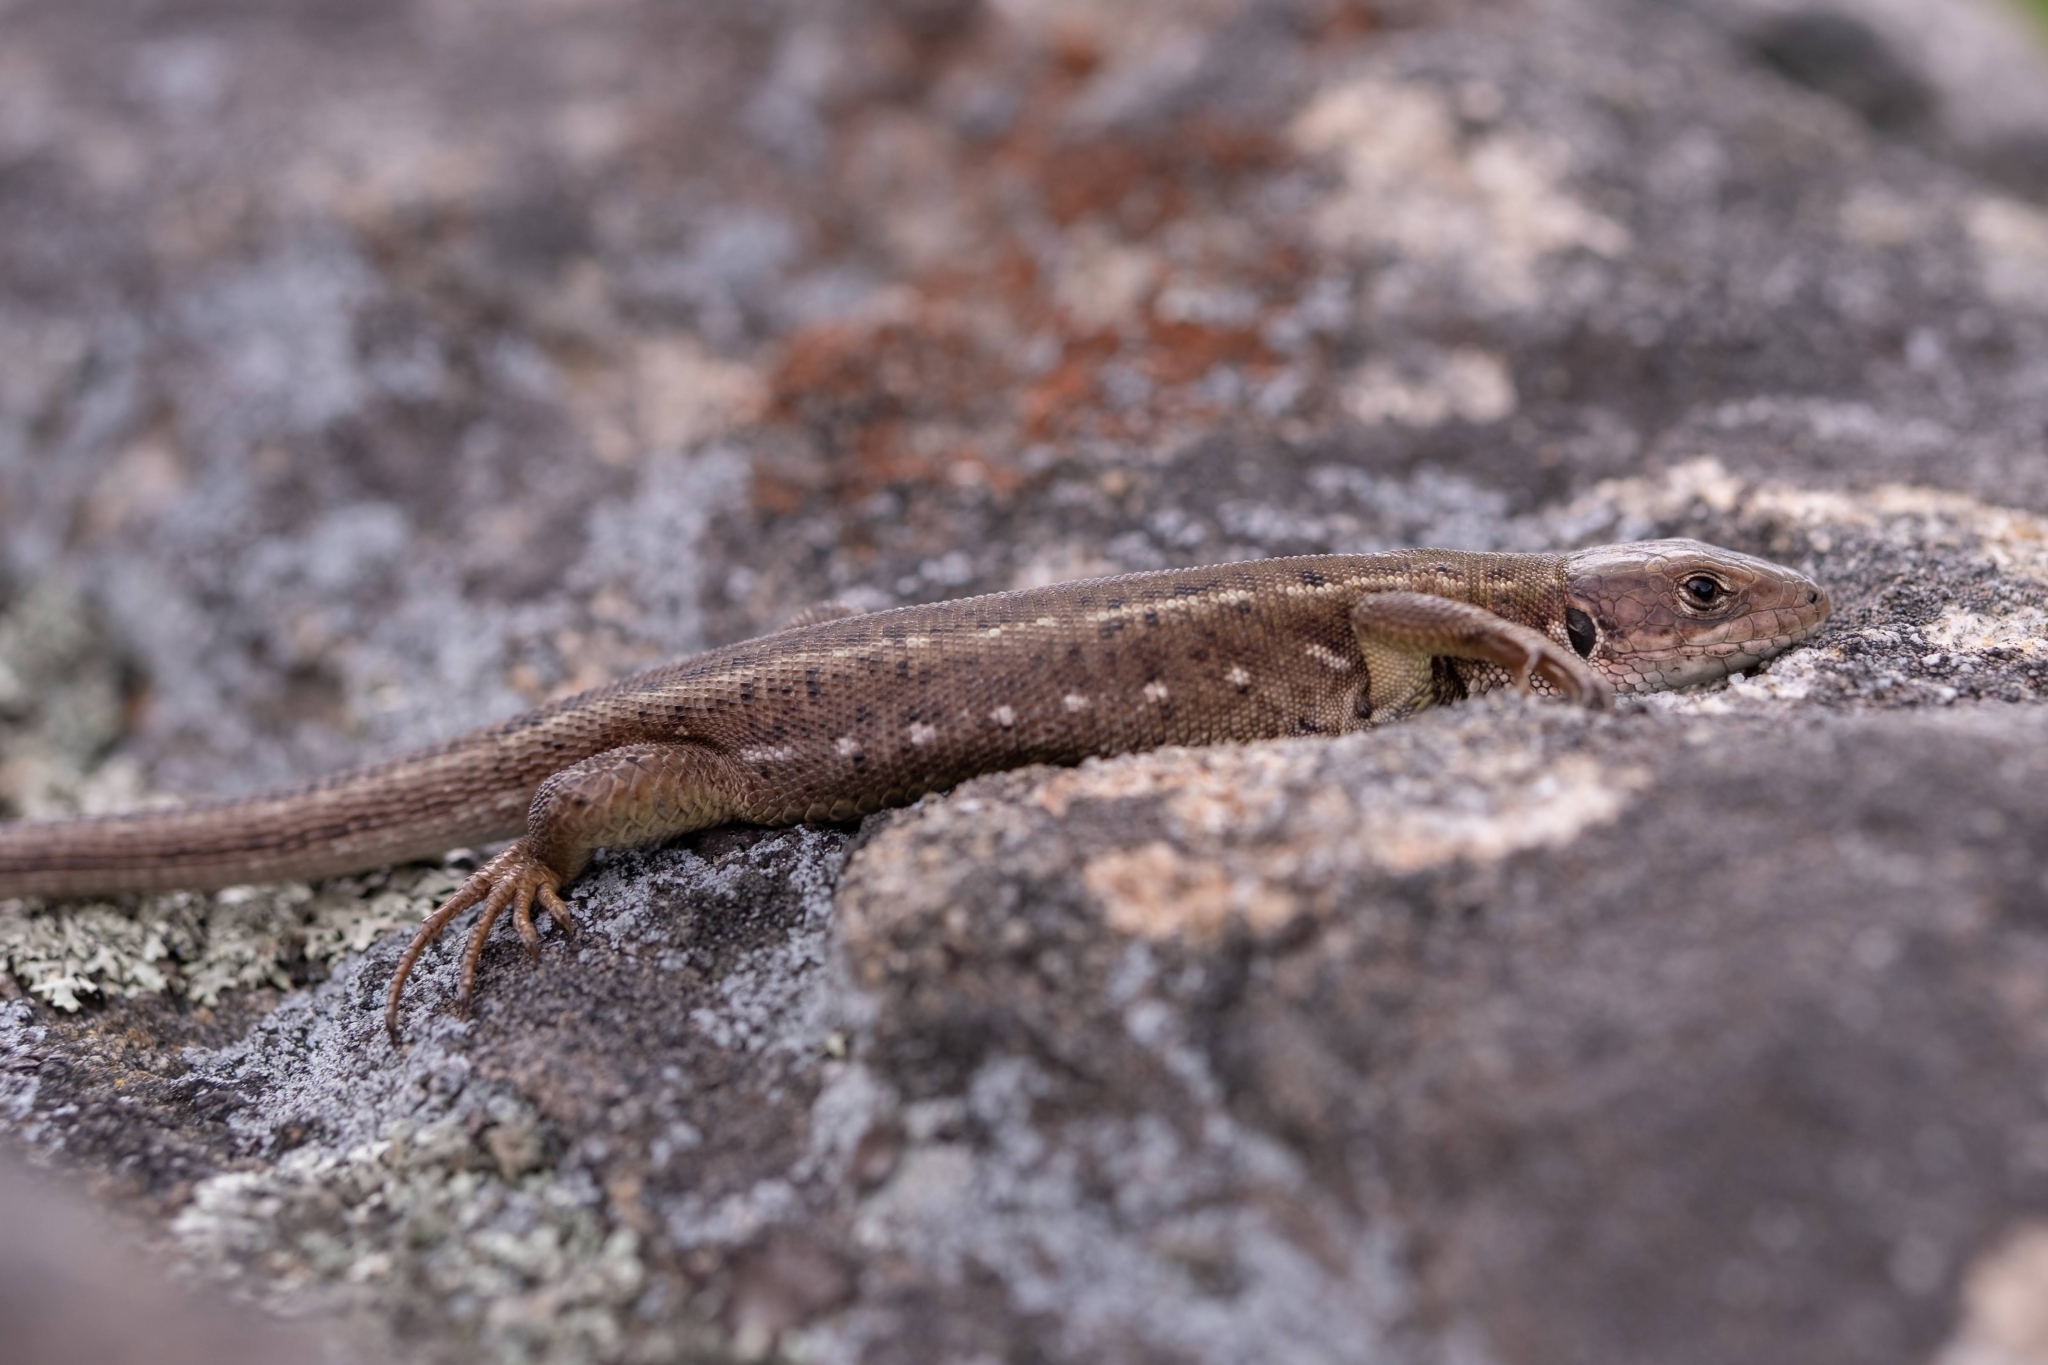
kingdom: Animalia
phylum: Chordata
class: Squamata
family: Lacertidae
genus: Lacerta
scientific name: Lacerta viridis
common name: European green lizard
